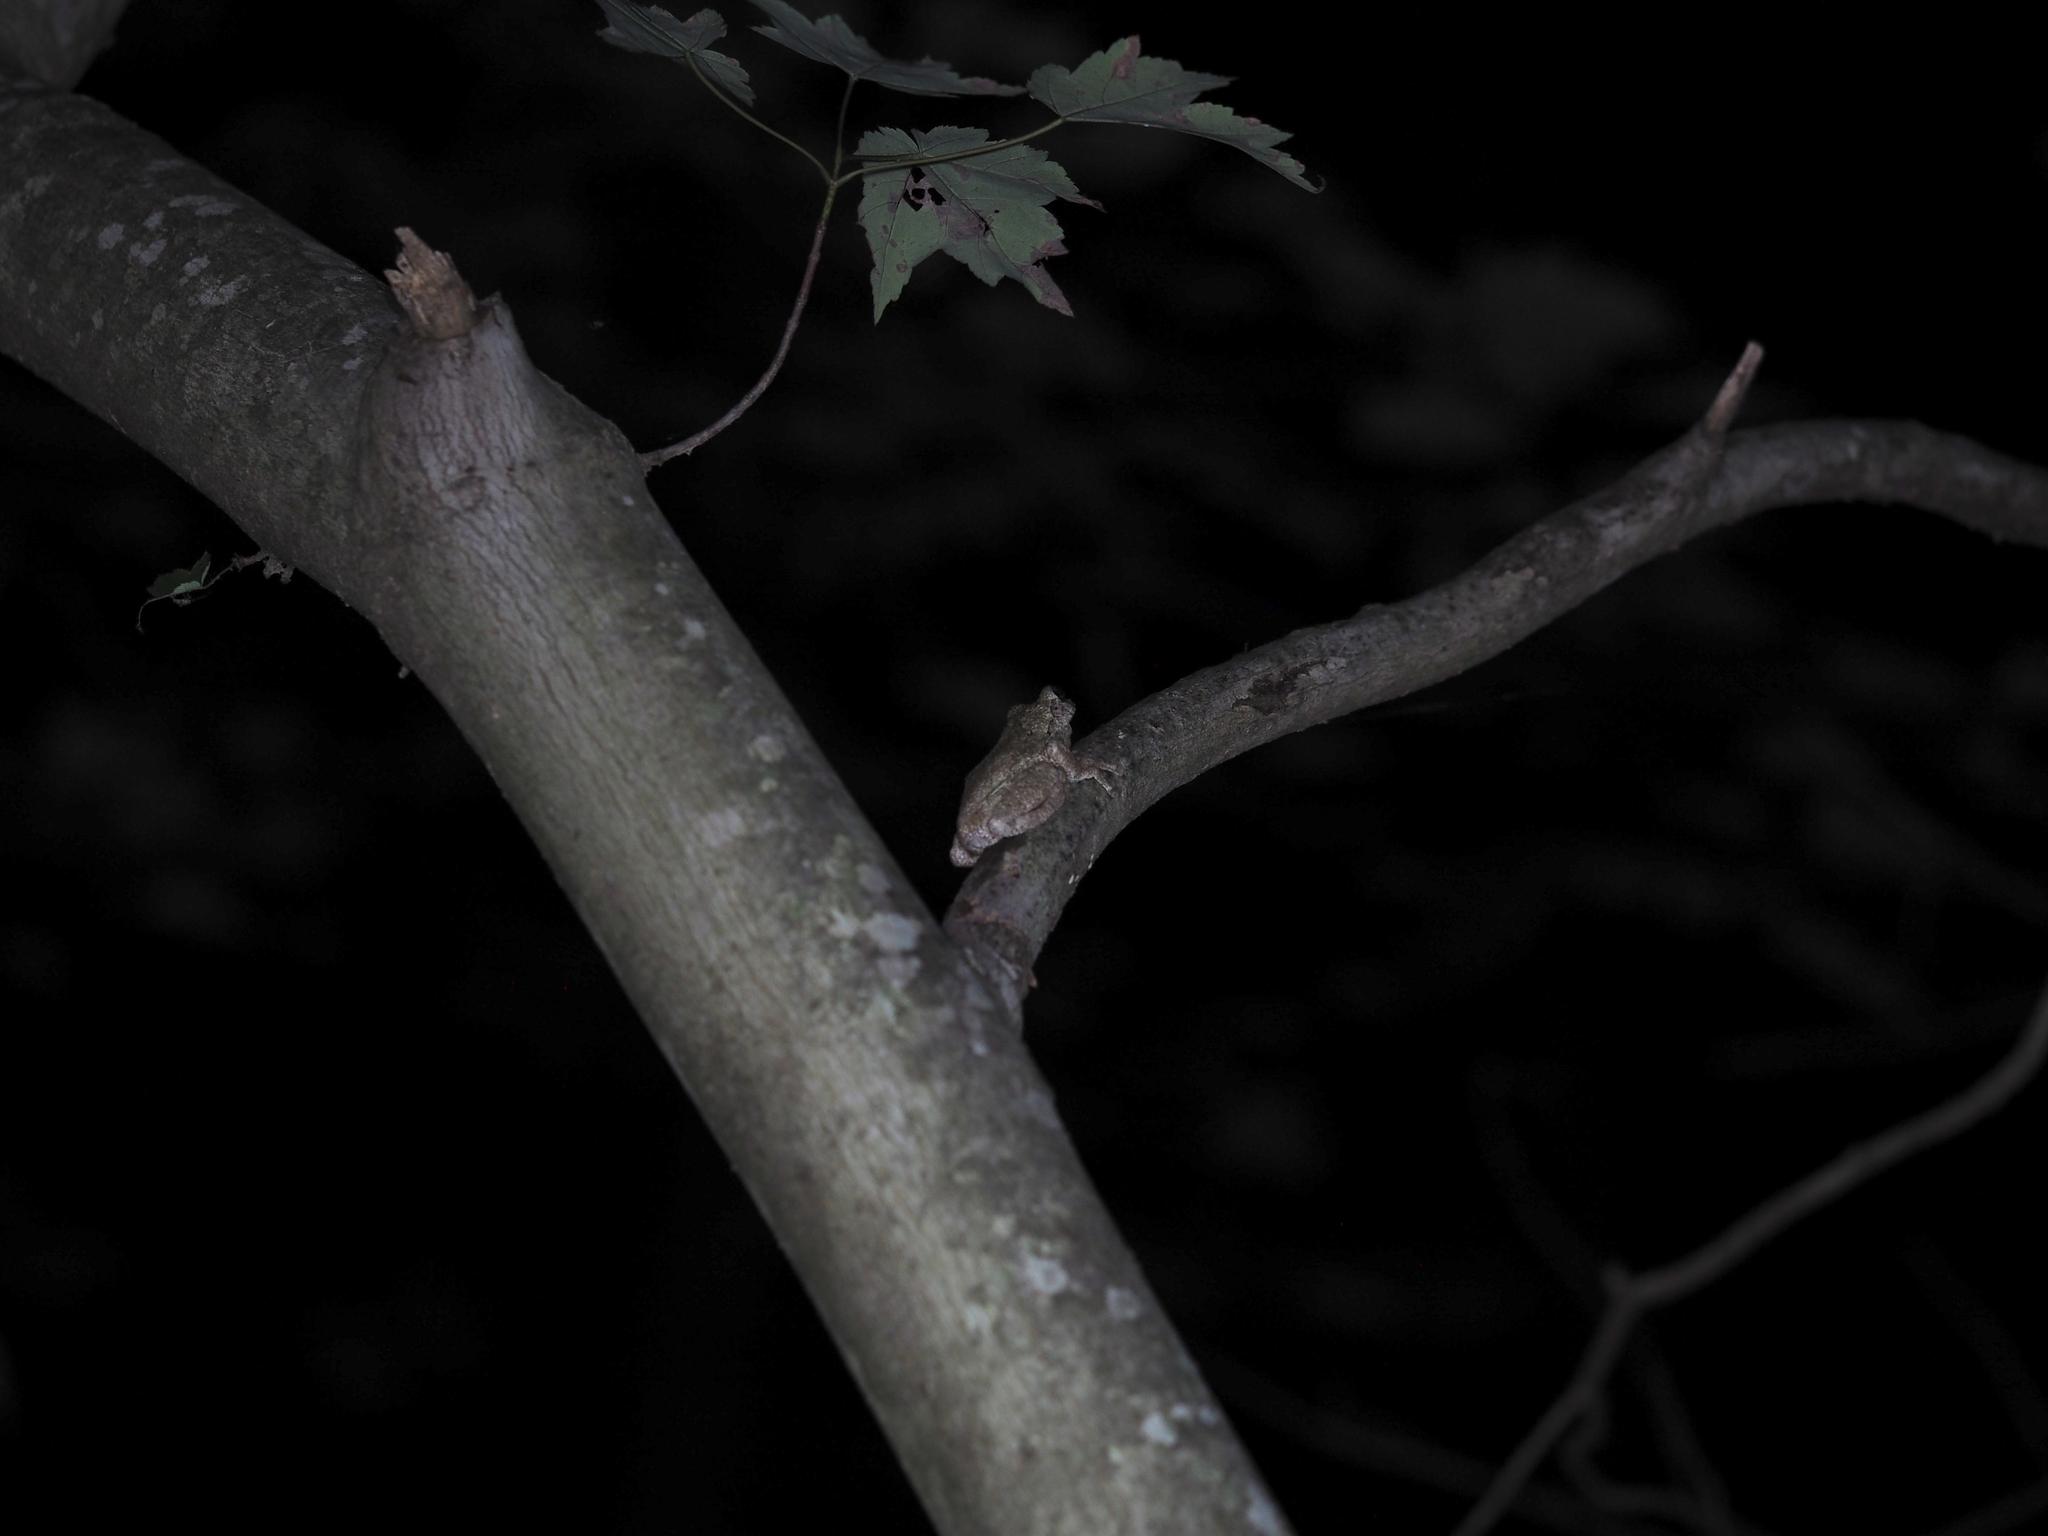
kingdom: Animalia
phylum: Chordata
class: Amphibia
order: Anura
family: Hylidae
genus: Hyla
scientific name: Hyla
